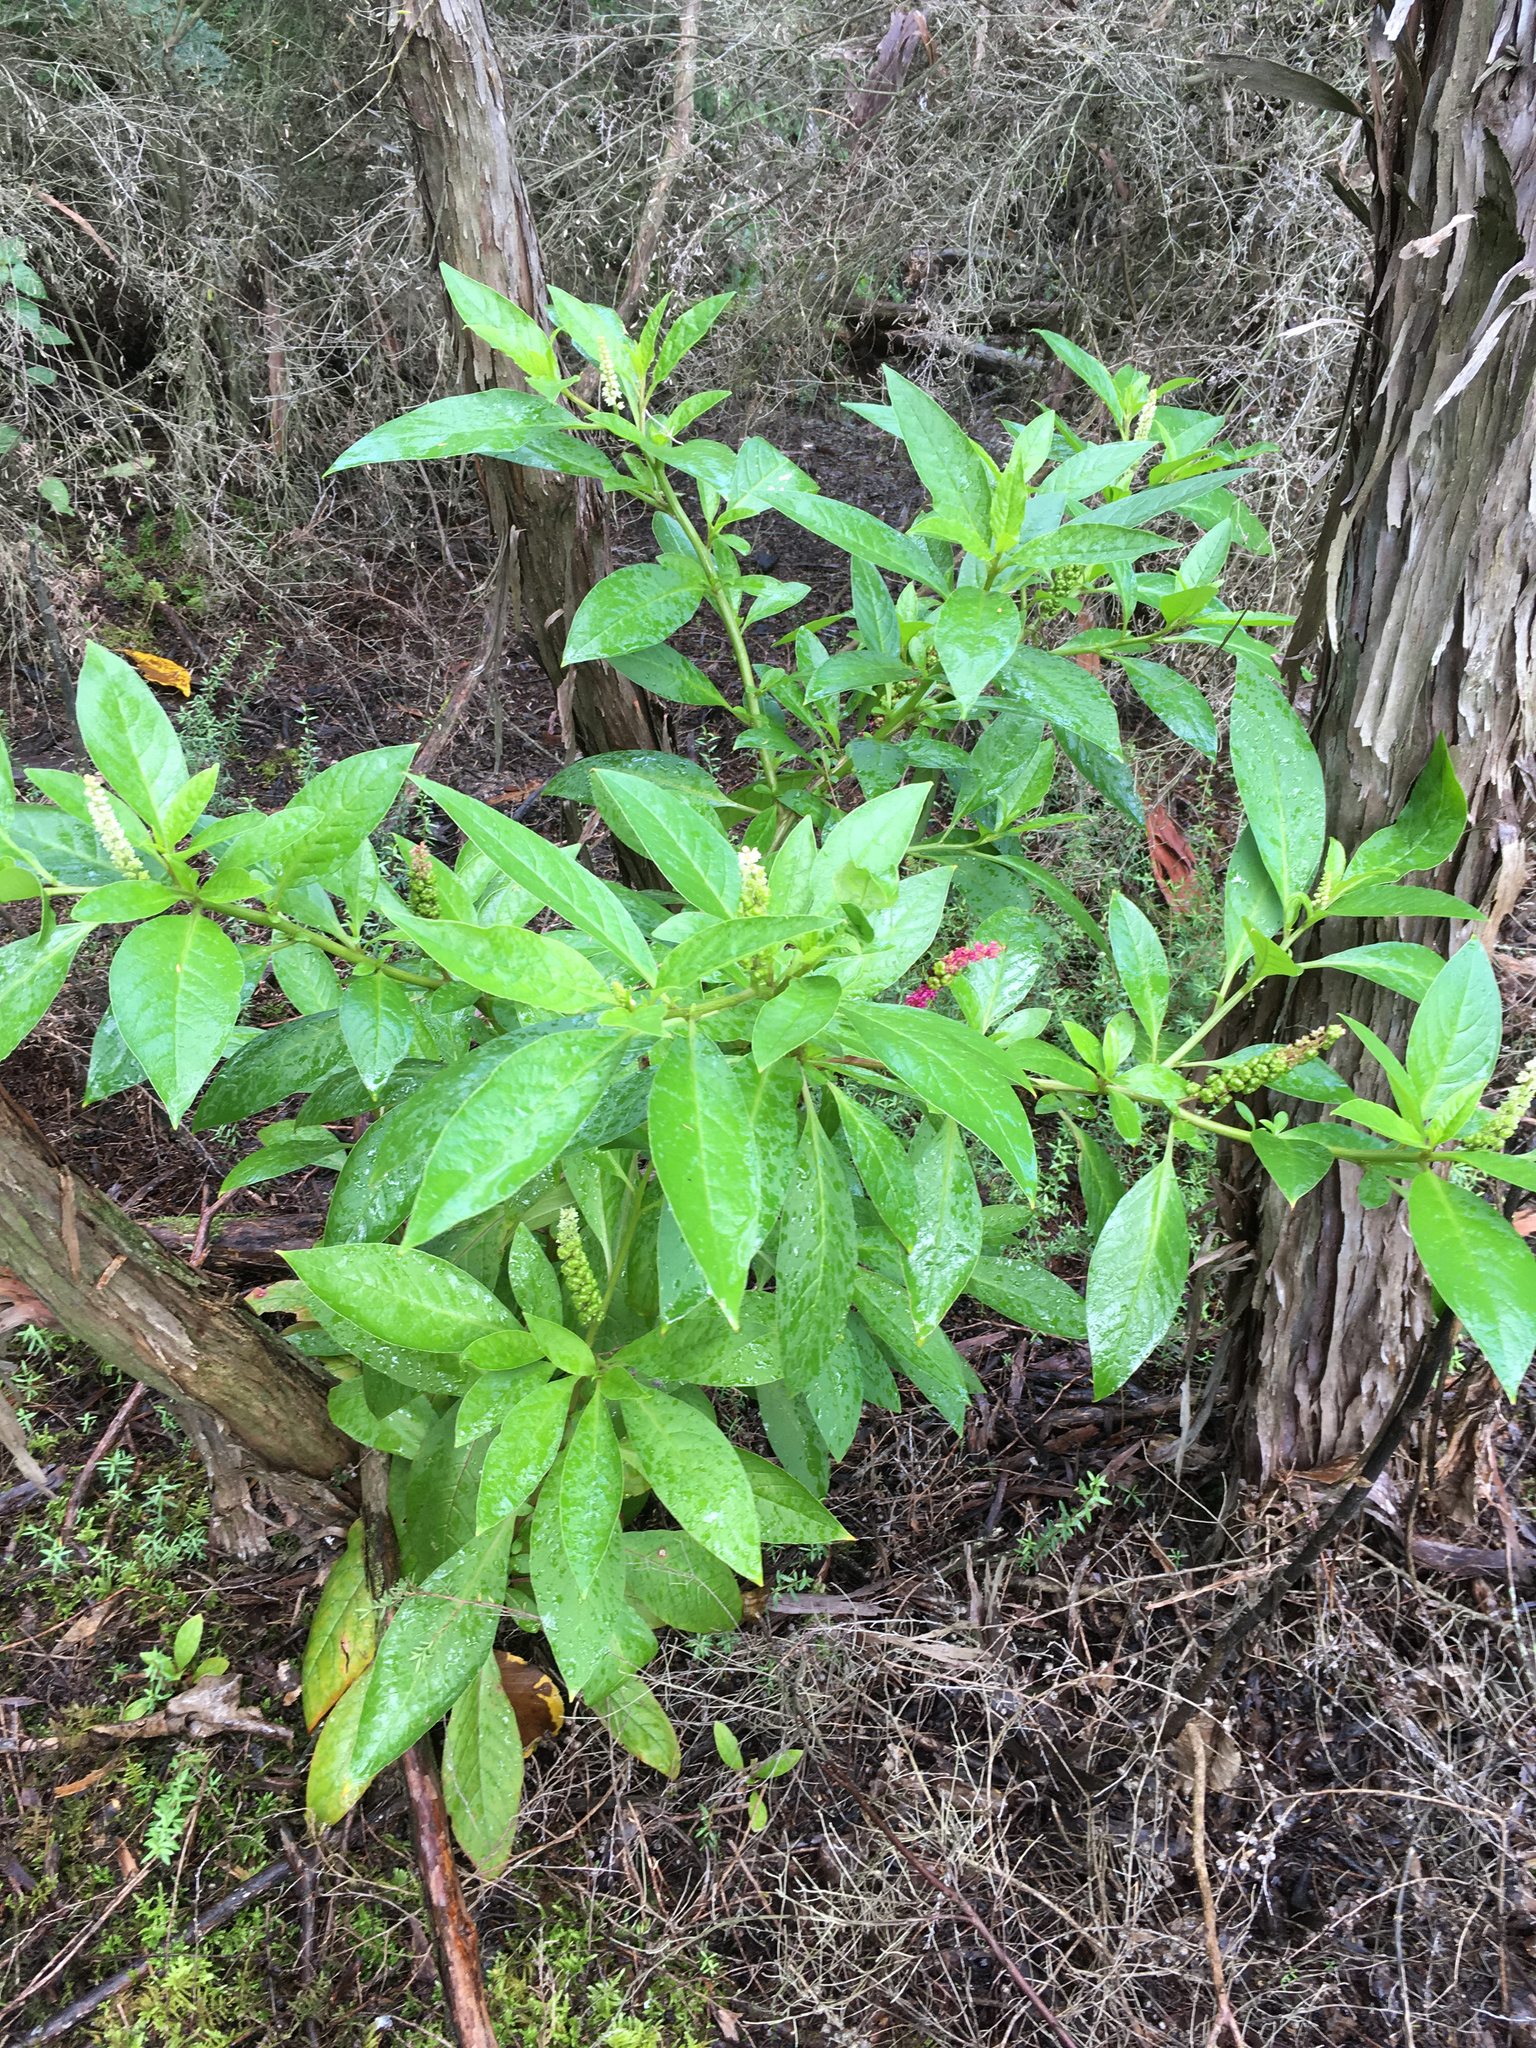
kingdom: Plantae
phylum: Tracheophyta
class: Magnoliopsida
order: Caryophyllales
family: Phytolaccaceae
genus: Phytolacca
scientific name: Phytolacca icosandra
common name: Button pokeweed
